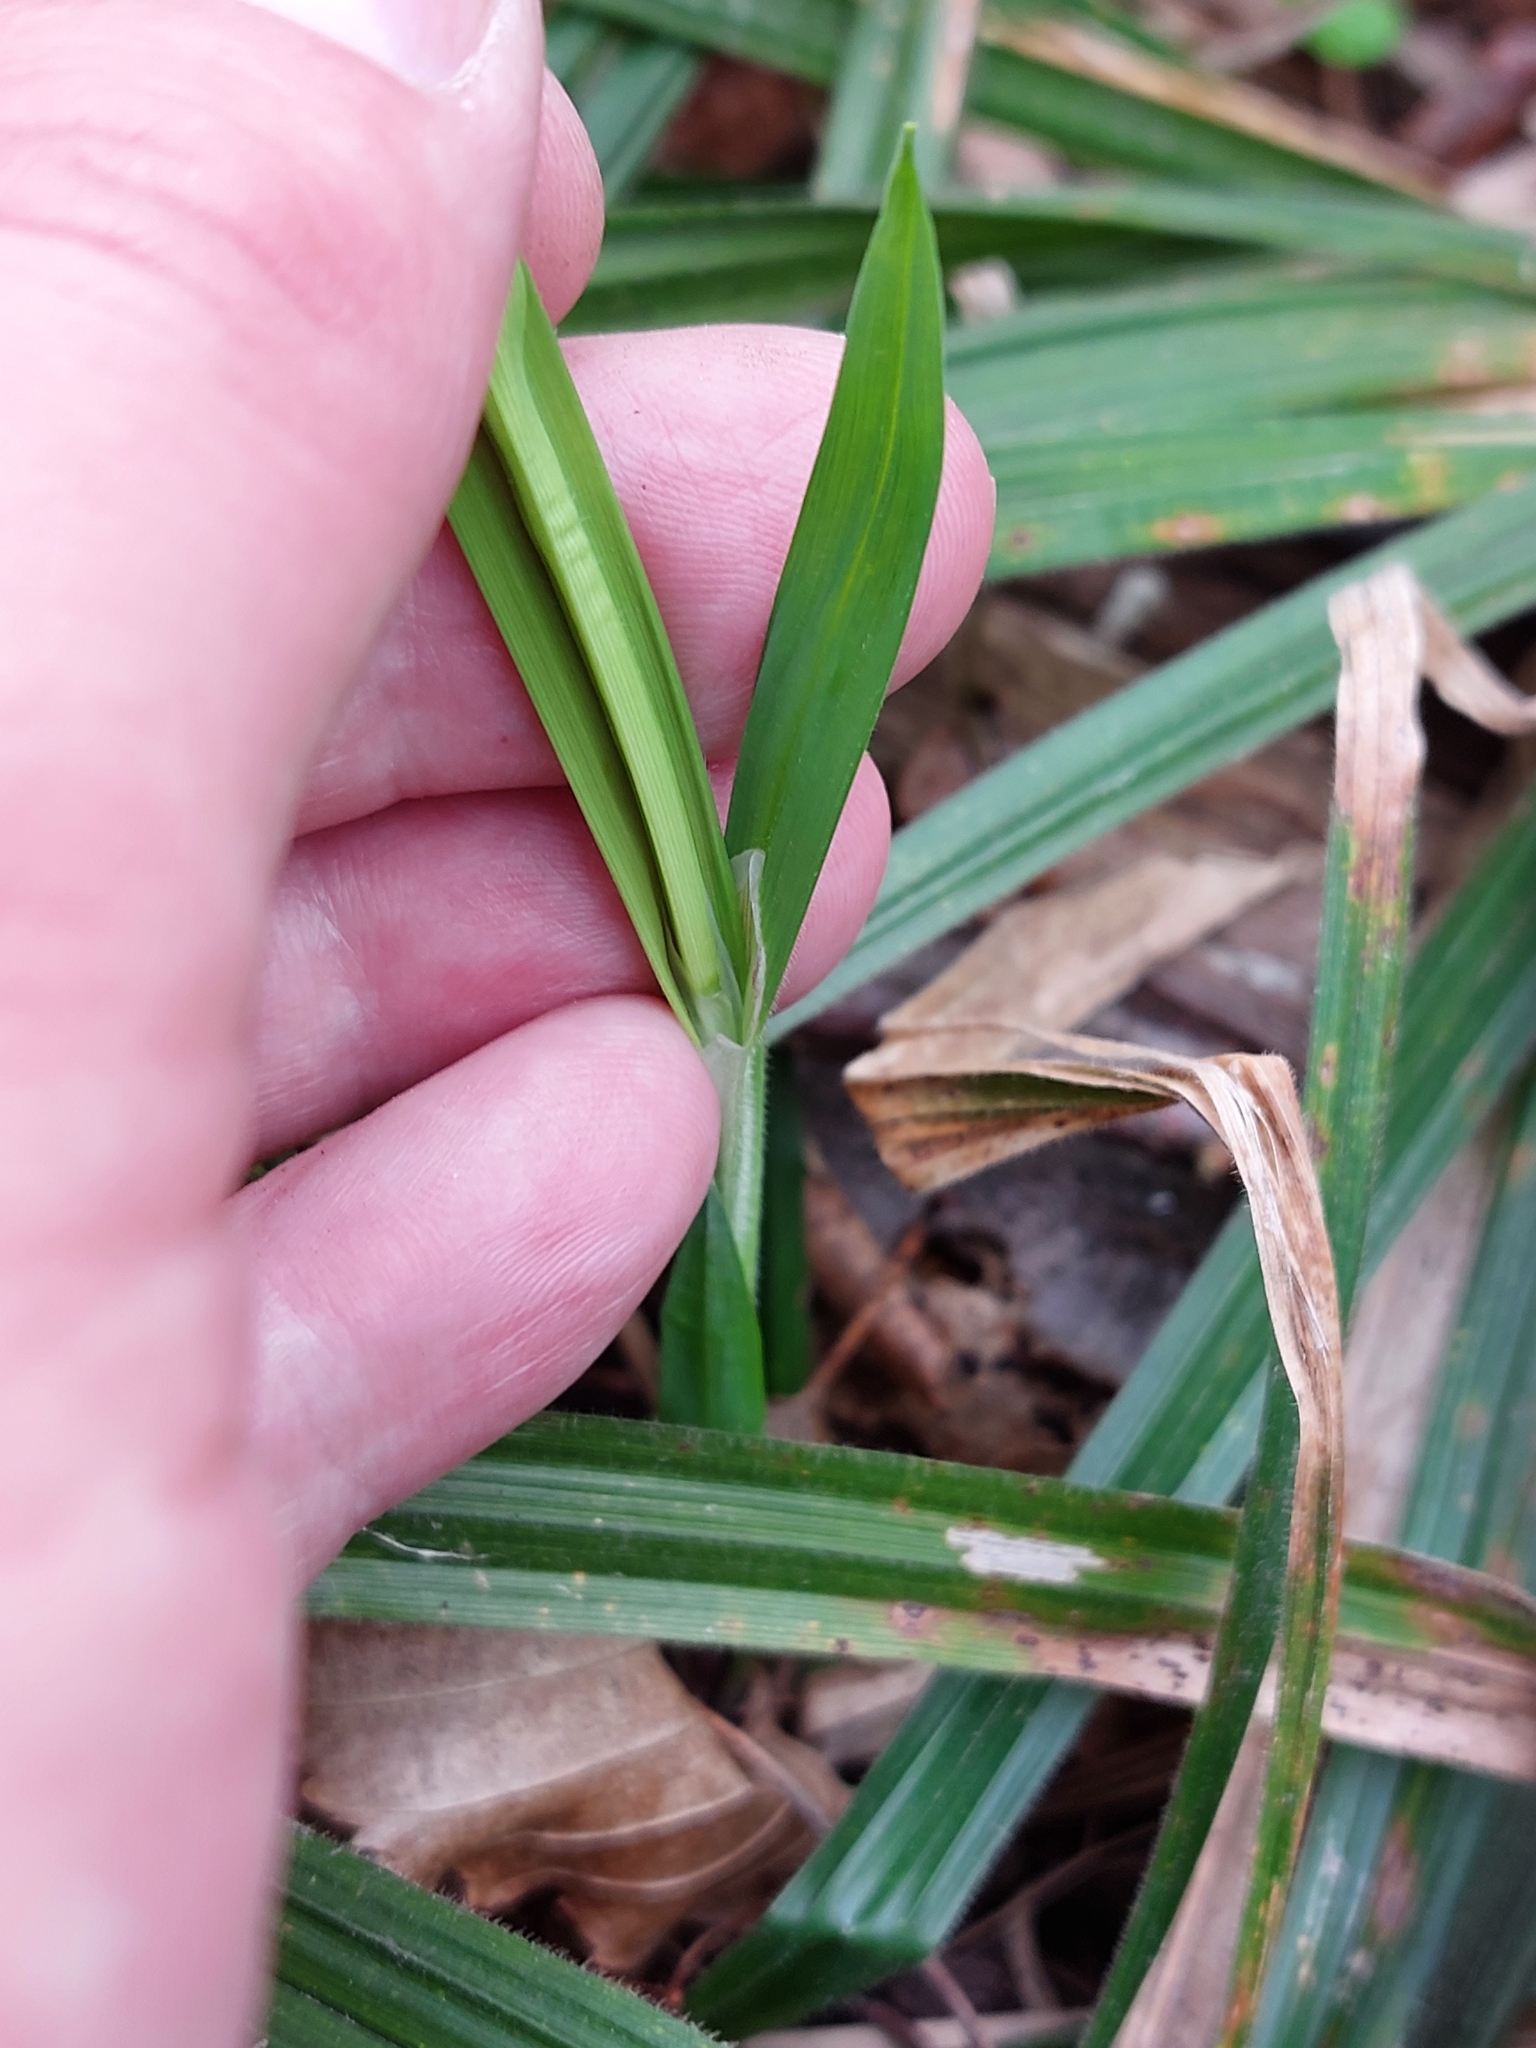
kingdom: Plantae
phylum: Tracheophyta
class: Liliopsida
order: Poales
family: Cyperaceae
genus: Carex
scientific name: Carex pilosa
